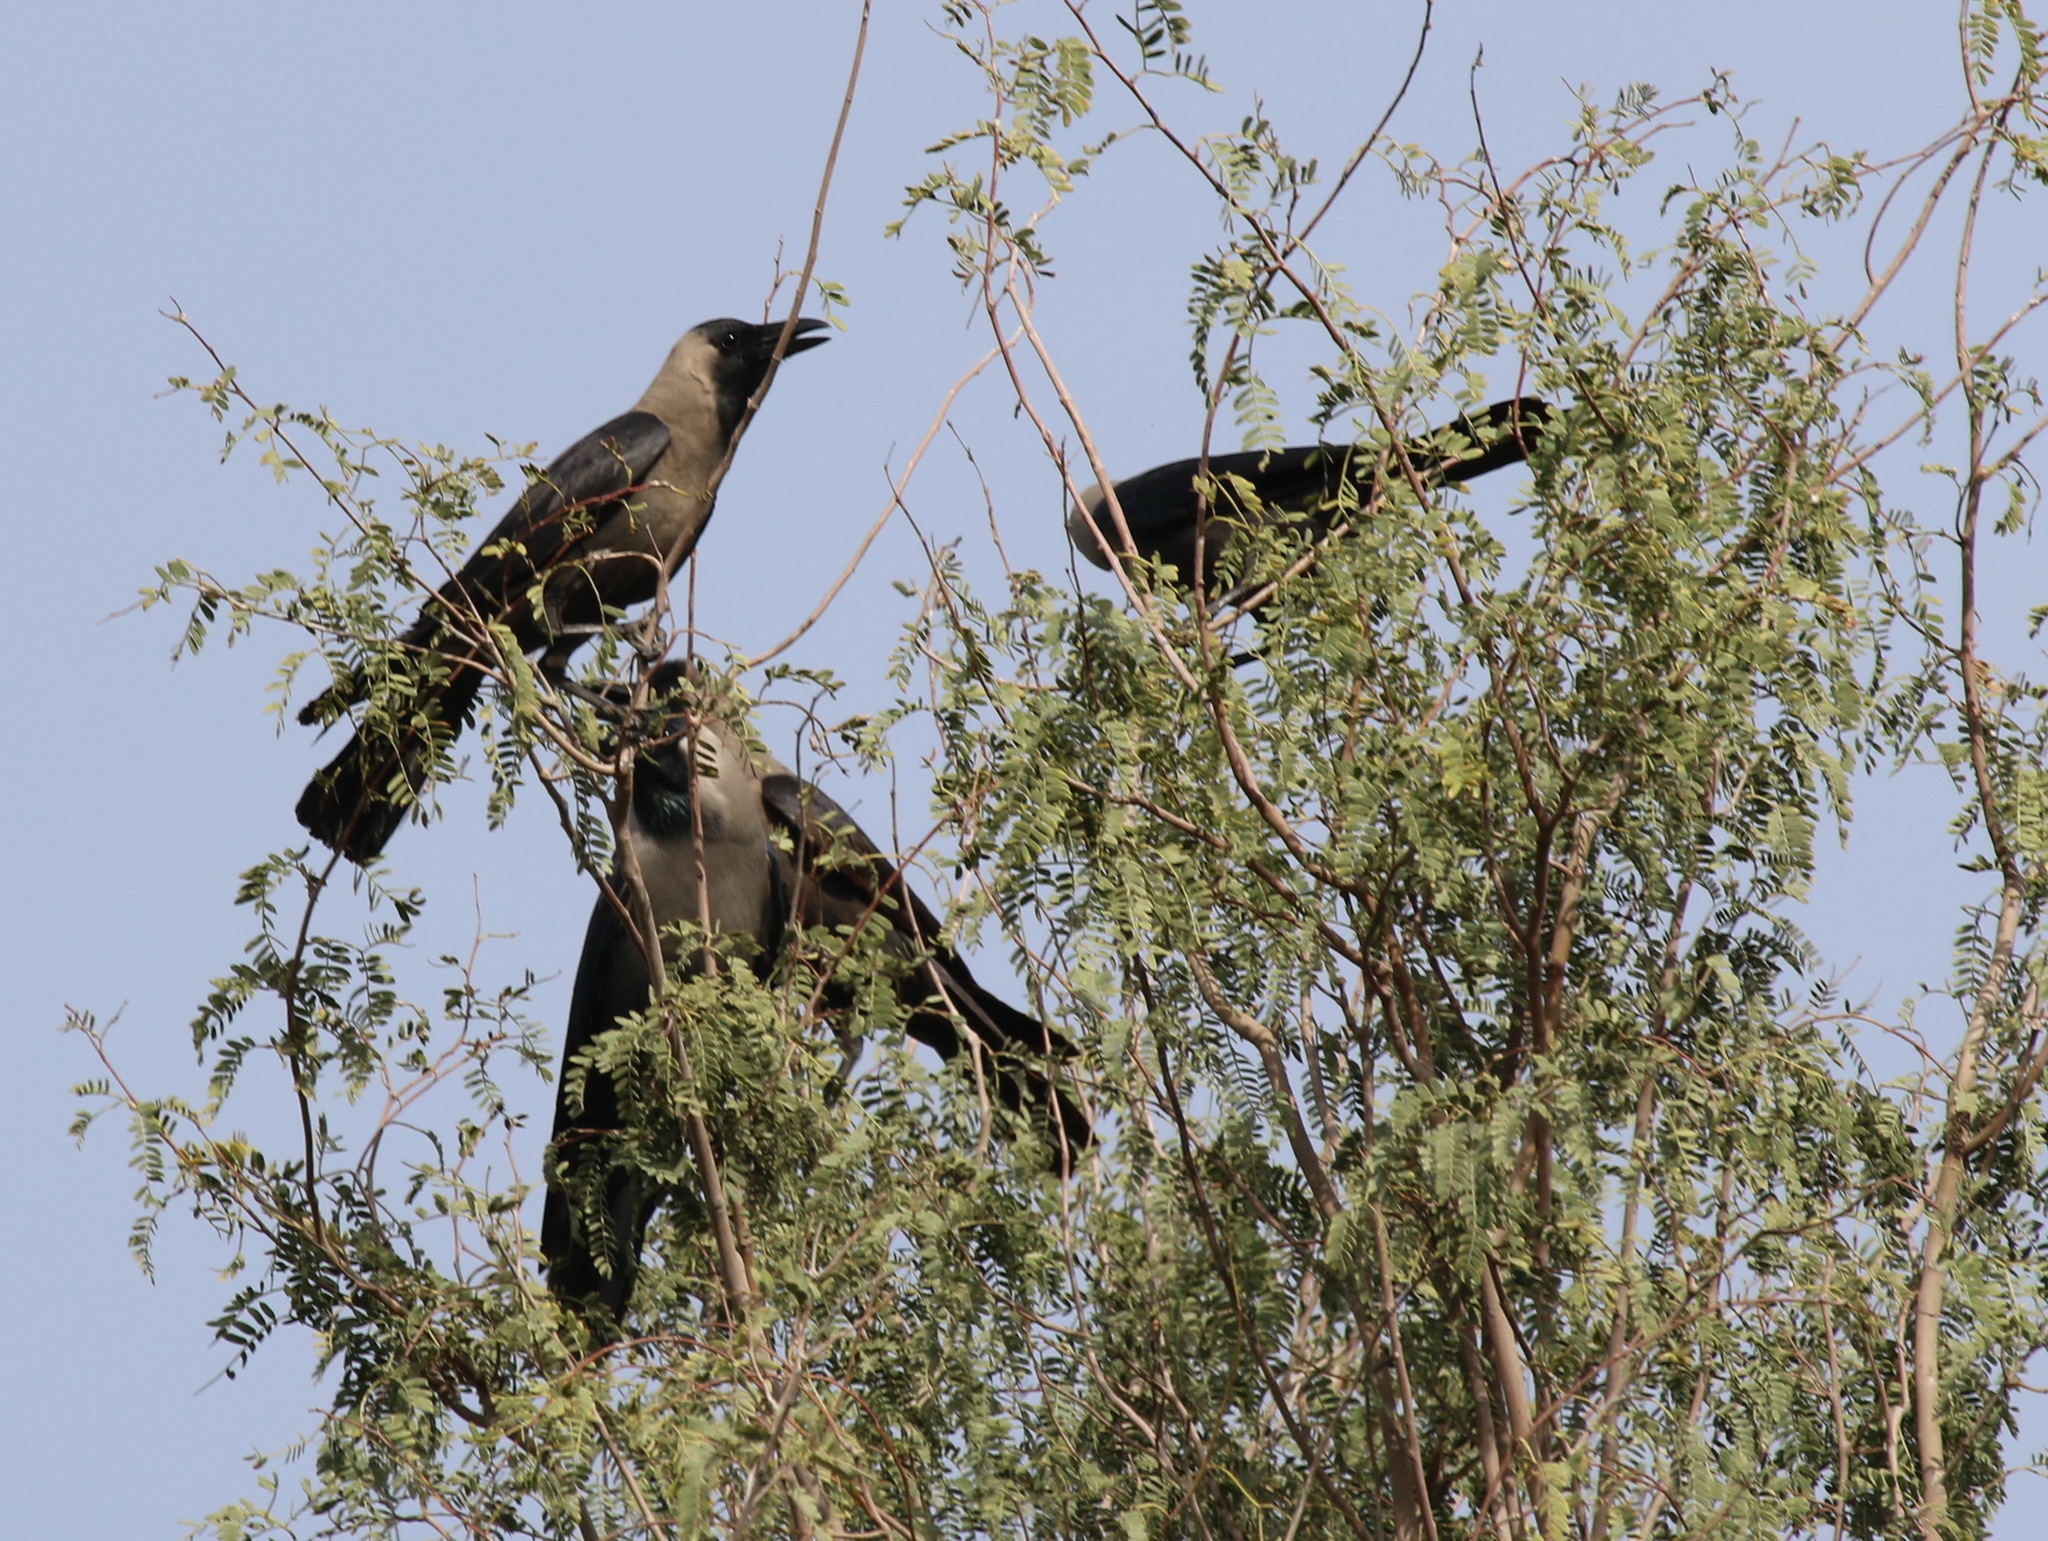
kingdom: Animalia
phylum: Chordata
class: Aves
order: Passeriformes
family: Corvidae
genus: Corvus
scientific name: Corvus splendens
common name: House crow
